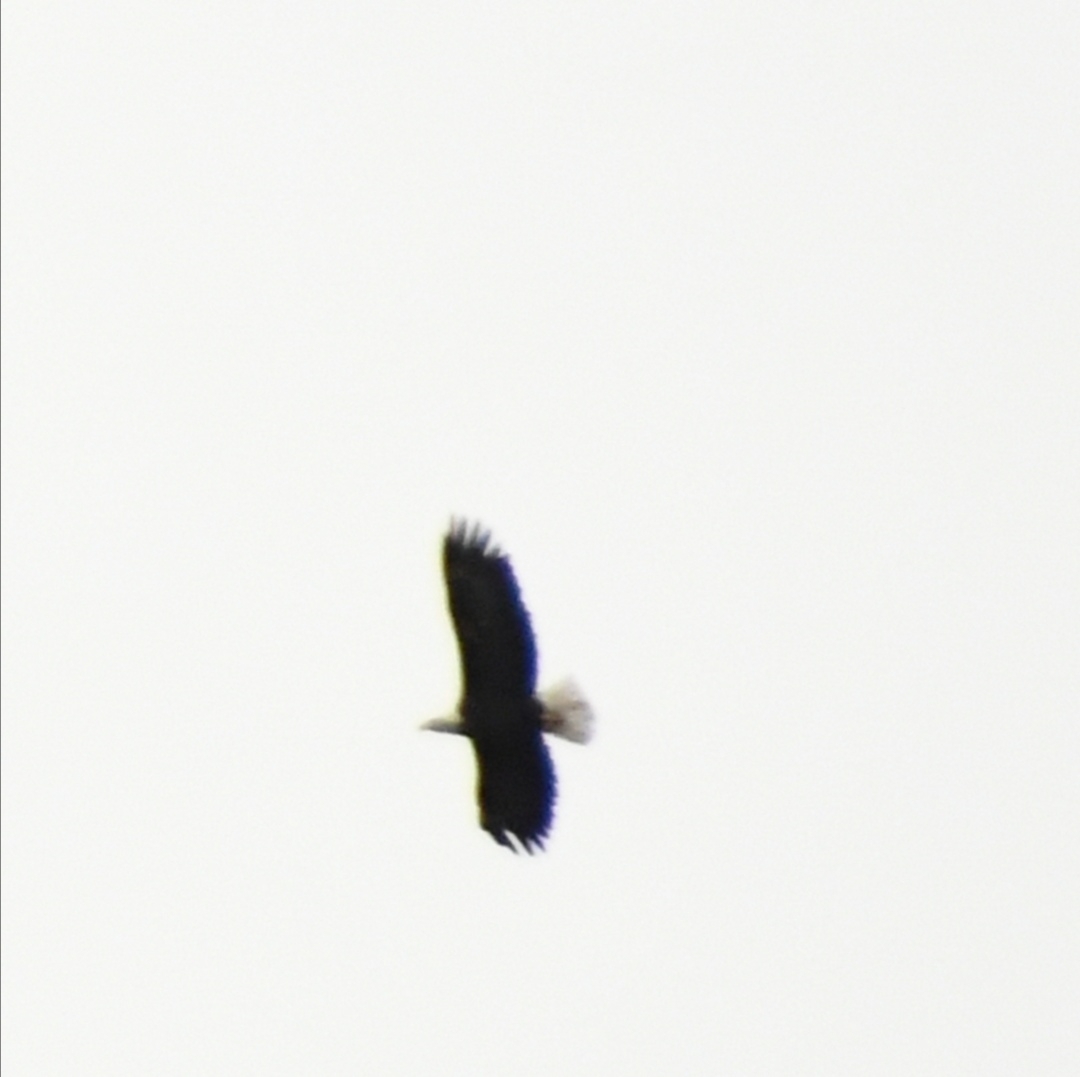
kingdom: Animalia
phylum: Chordata
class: Aves
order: Accipitriformes
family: Accipitridae
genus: Haliaeetus
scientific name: Haliaeetus leucocephalus
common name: Bald eagle
